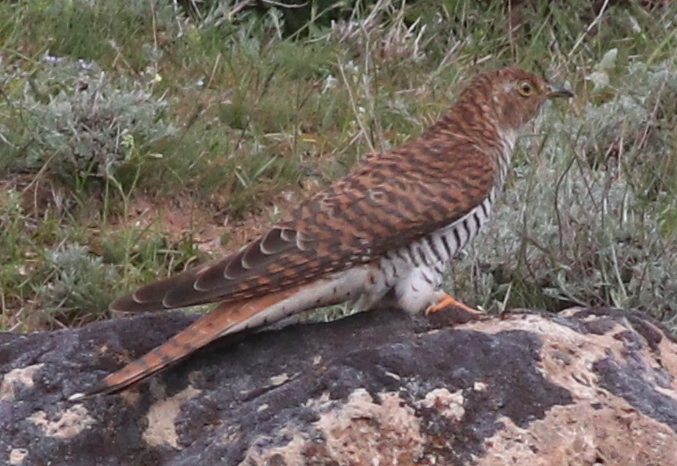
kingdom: Animalia
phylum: Chordata
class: Aves
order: Cuculiformes
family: Cuculidae
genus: Cuculus
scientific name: Cuculus canorus
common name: Common cuckoo
